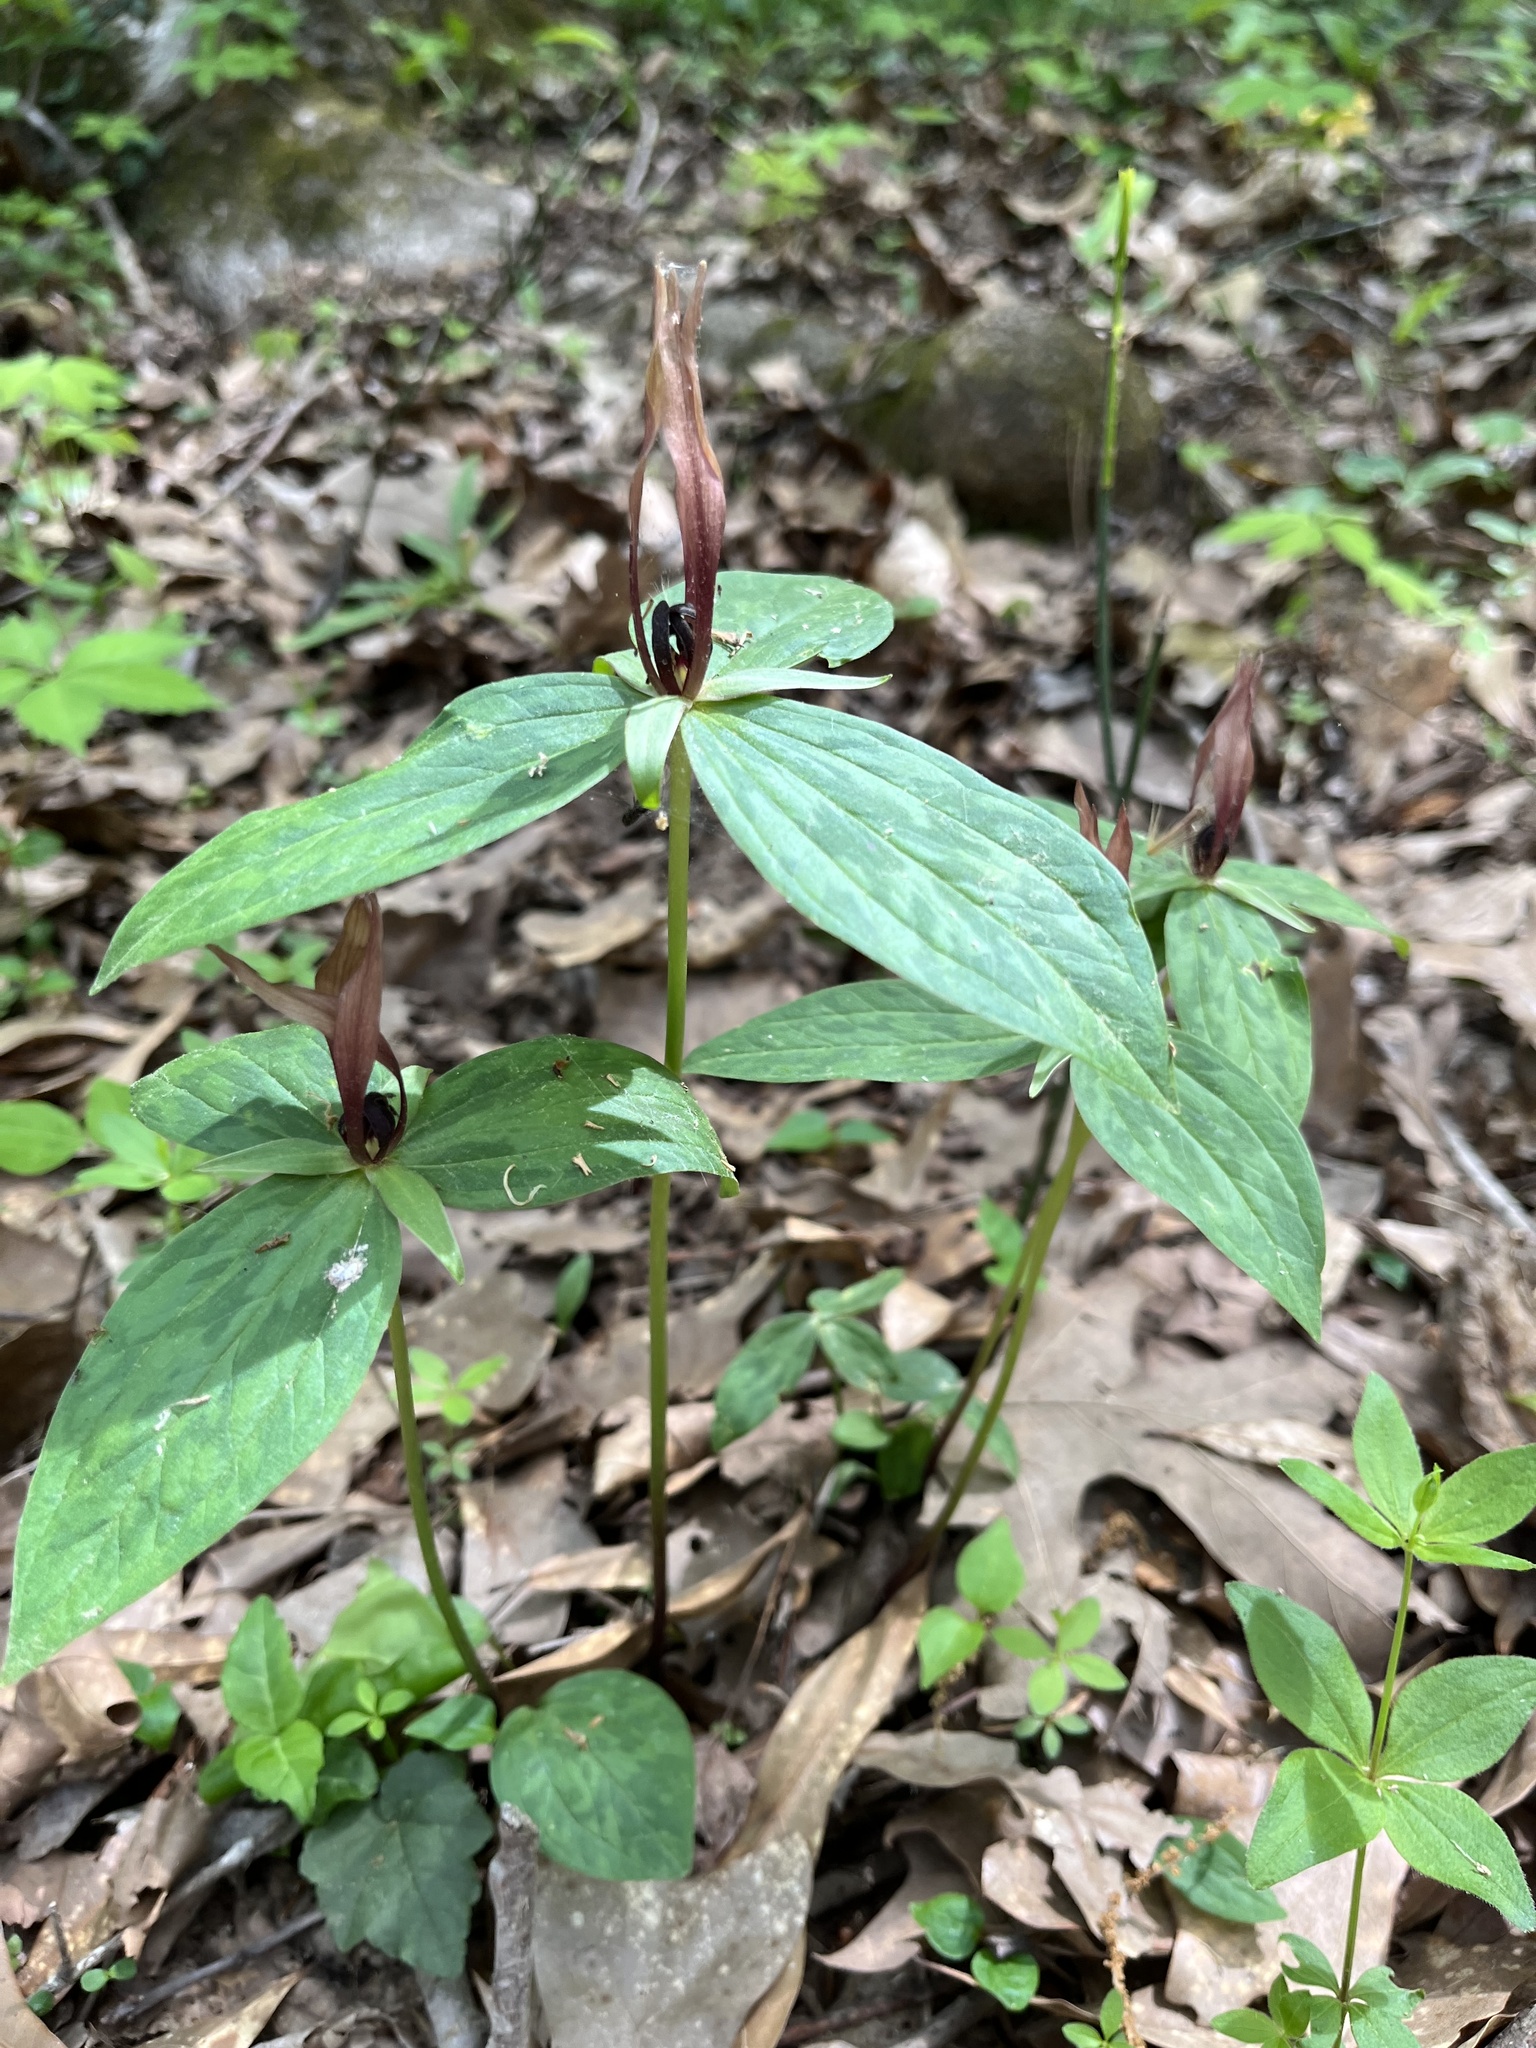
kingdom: Plantae
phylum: Tracheophyta
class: Liliopsida
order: Liliales
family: Melanthiaceae
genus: Trillium
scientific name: Trillium lancifolium
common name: Lance-leaved trillium
